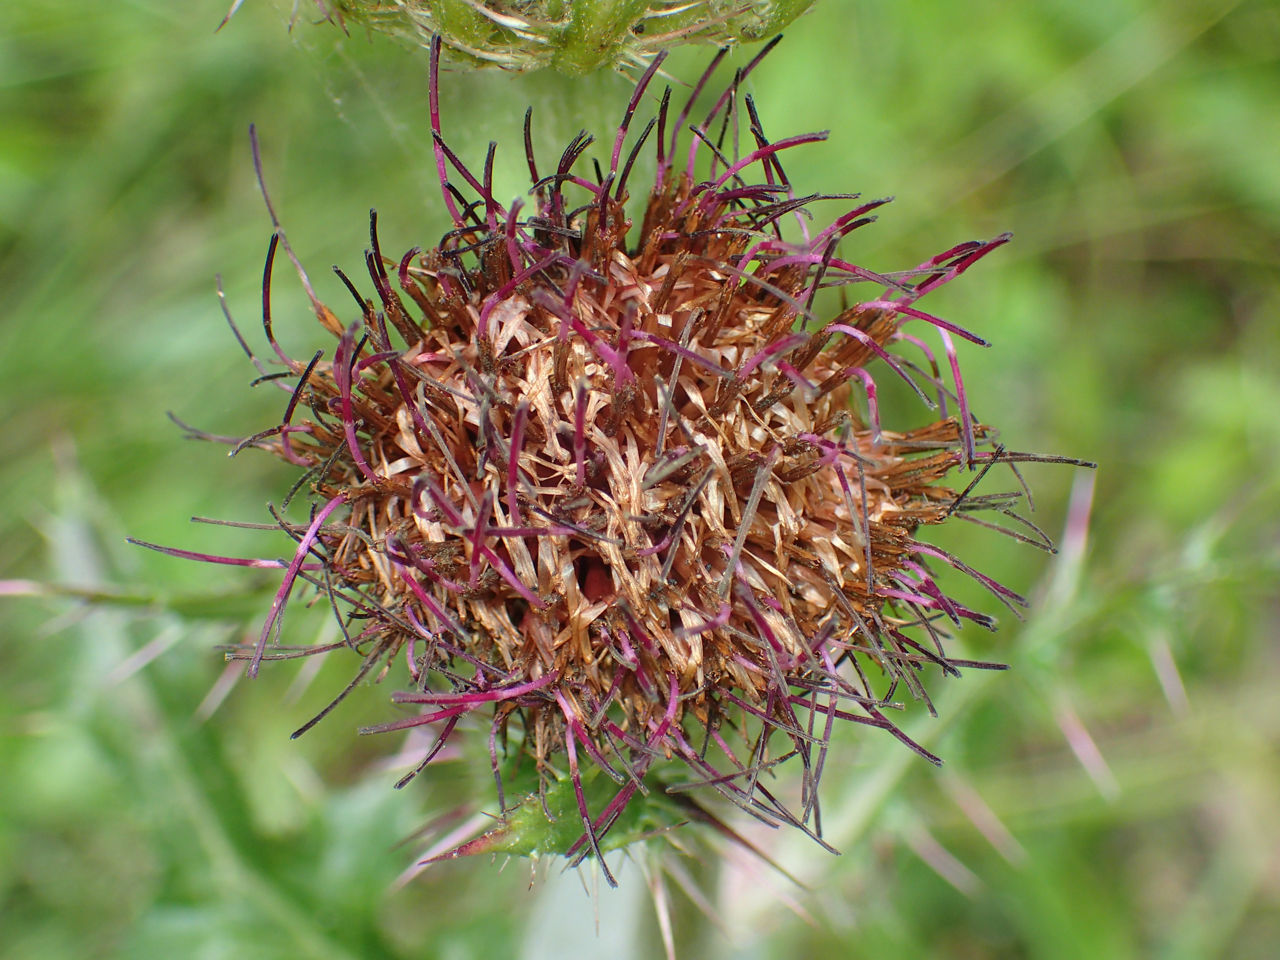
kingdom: Plantae
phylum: Tracheophyta
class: Magnoliopsida
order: Asterales
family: Asteraceae
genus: Cirsium
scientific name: Cirsium horridulum
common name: Bristly thistle
